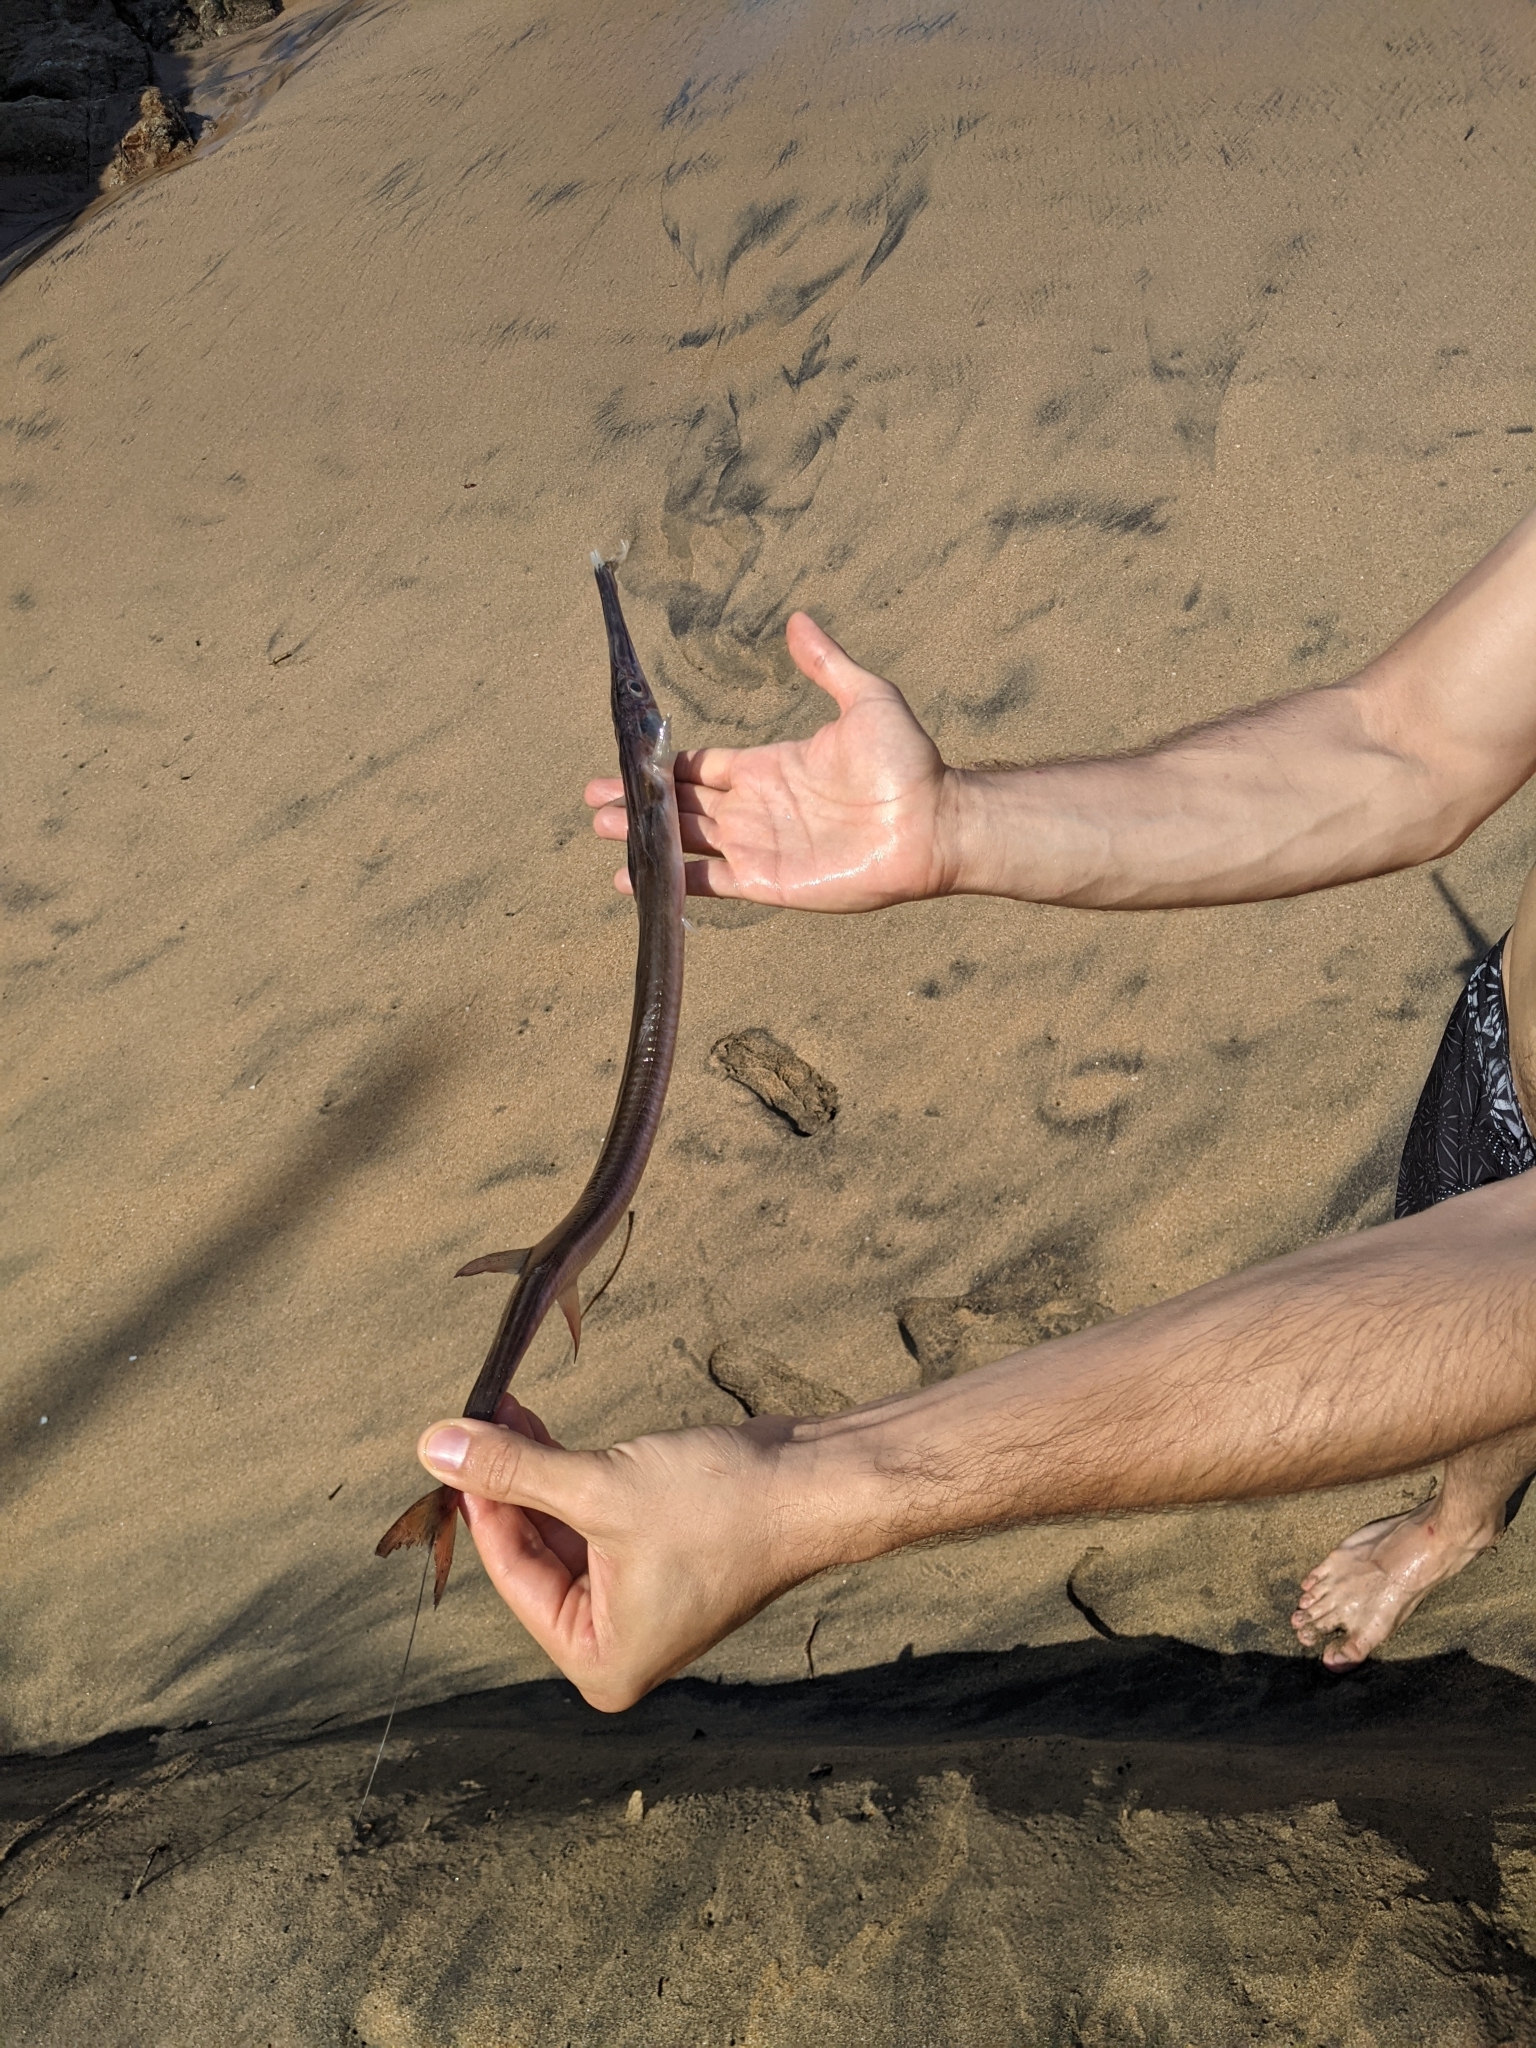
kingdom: Animalia
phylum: Chordata
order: Syngnathiformes
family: Fistulariidae
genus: Fistularia
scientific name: Fistularia corneta
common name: Deepwater cornetfish
